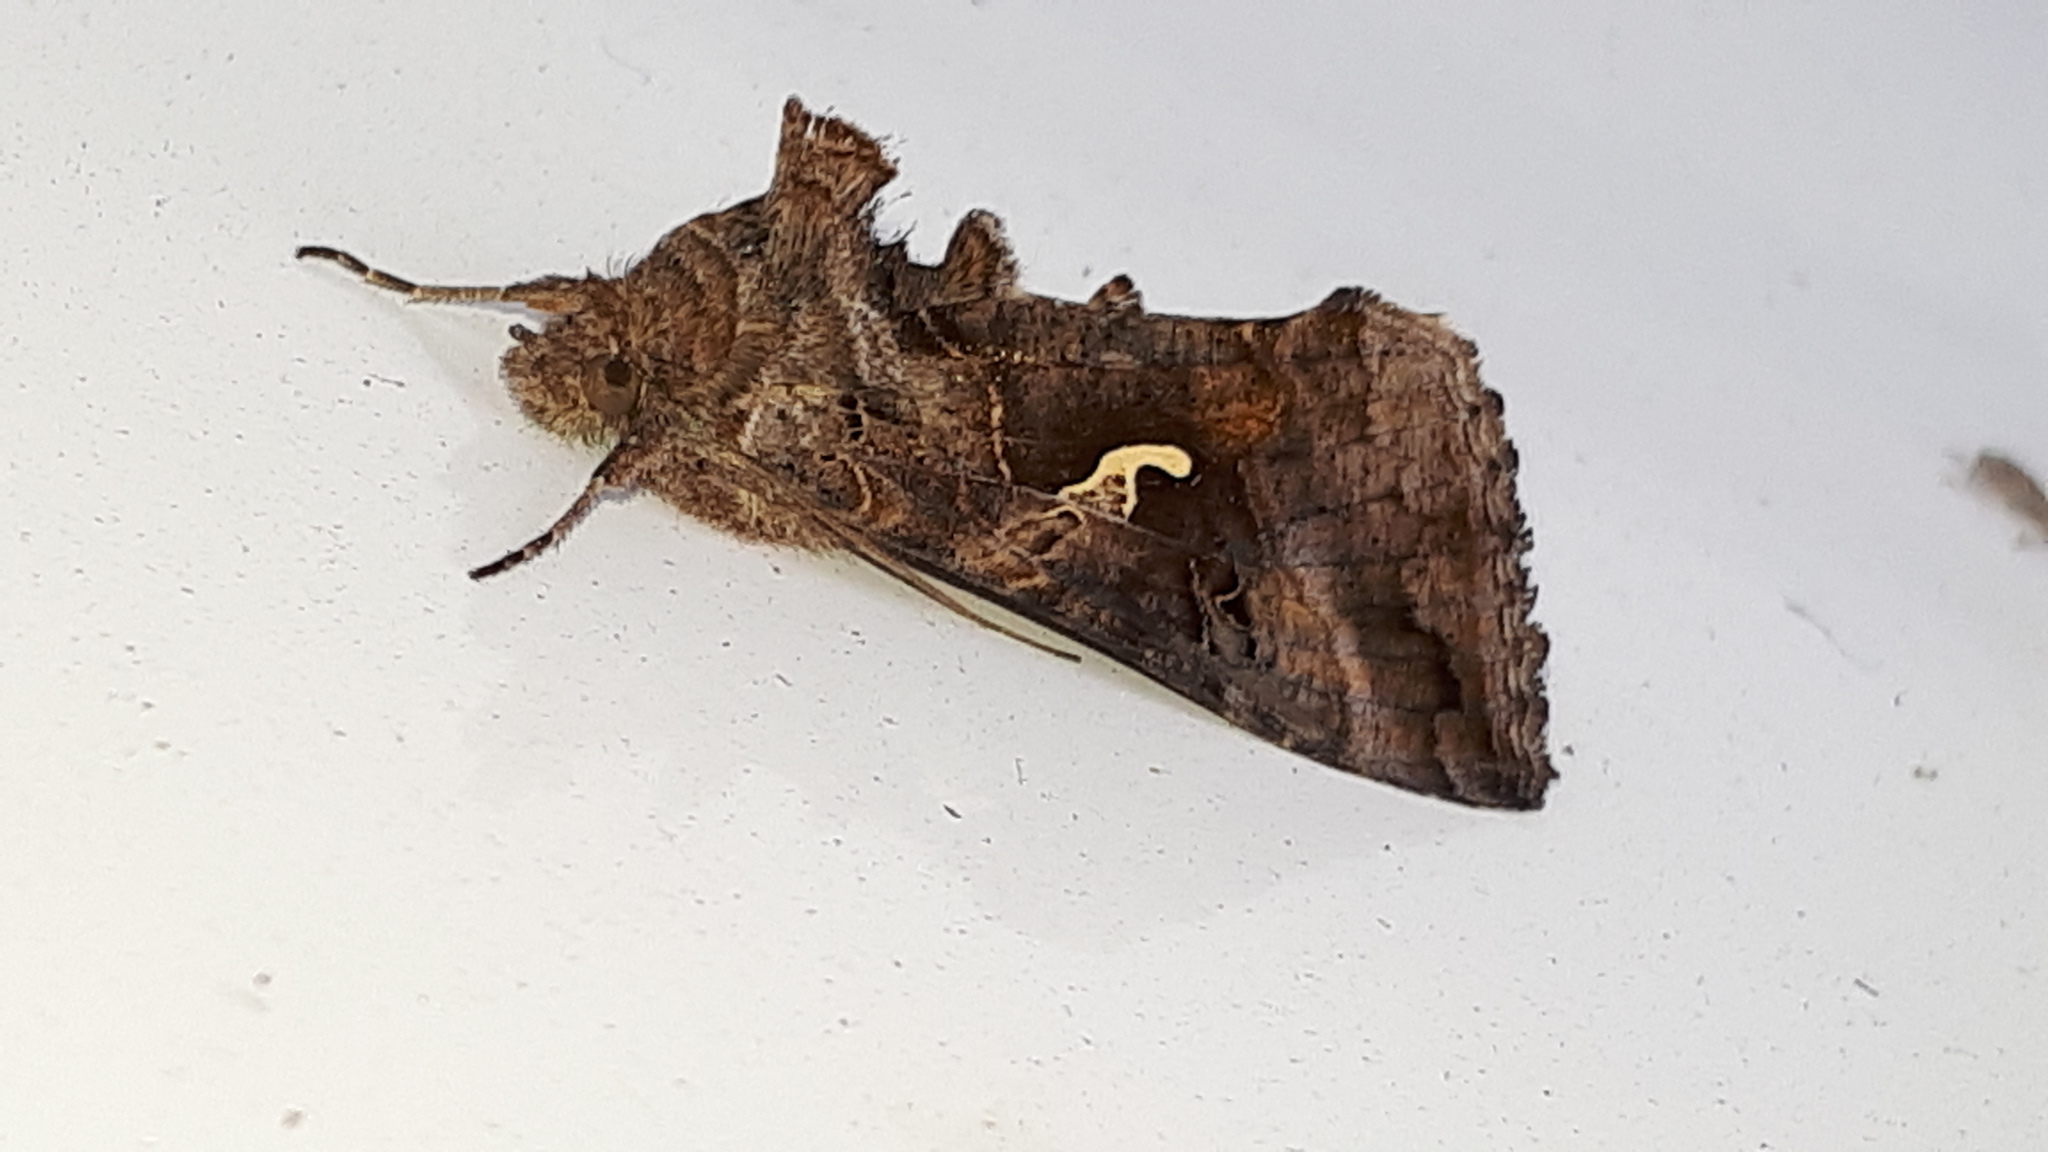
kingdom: Animalia
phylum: Arthropoda
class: Insecta
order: Lepidoptera
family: Noctuidae
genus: Autographa
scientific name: Autographa gamma
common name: Silver y
